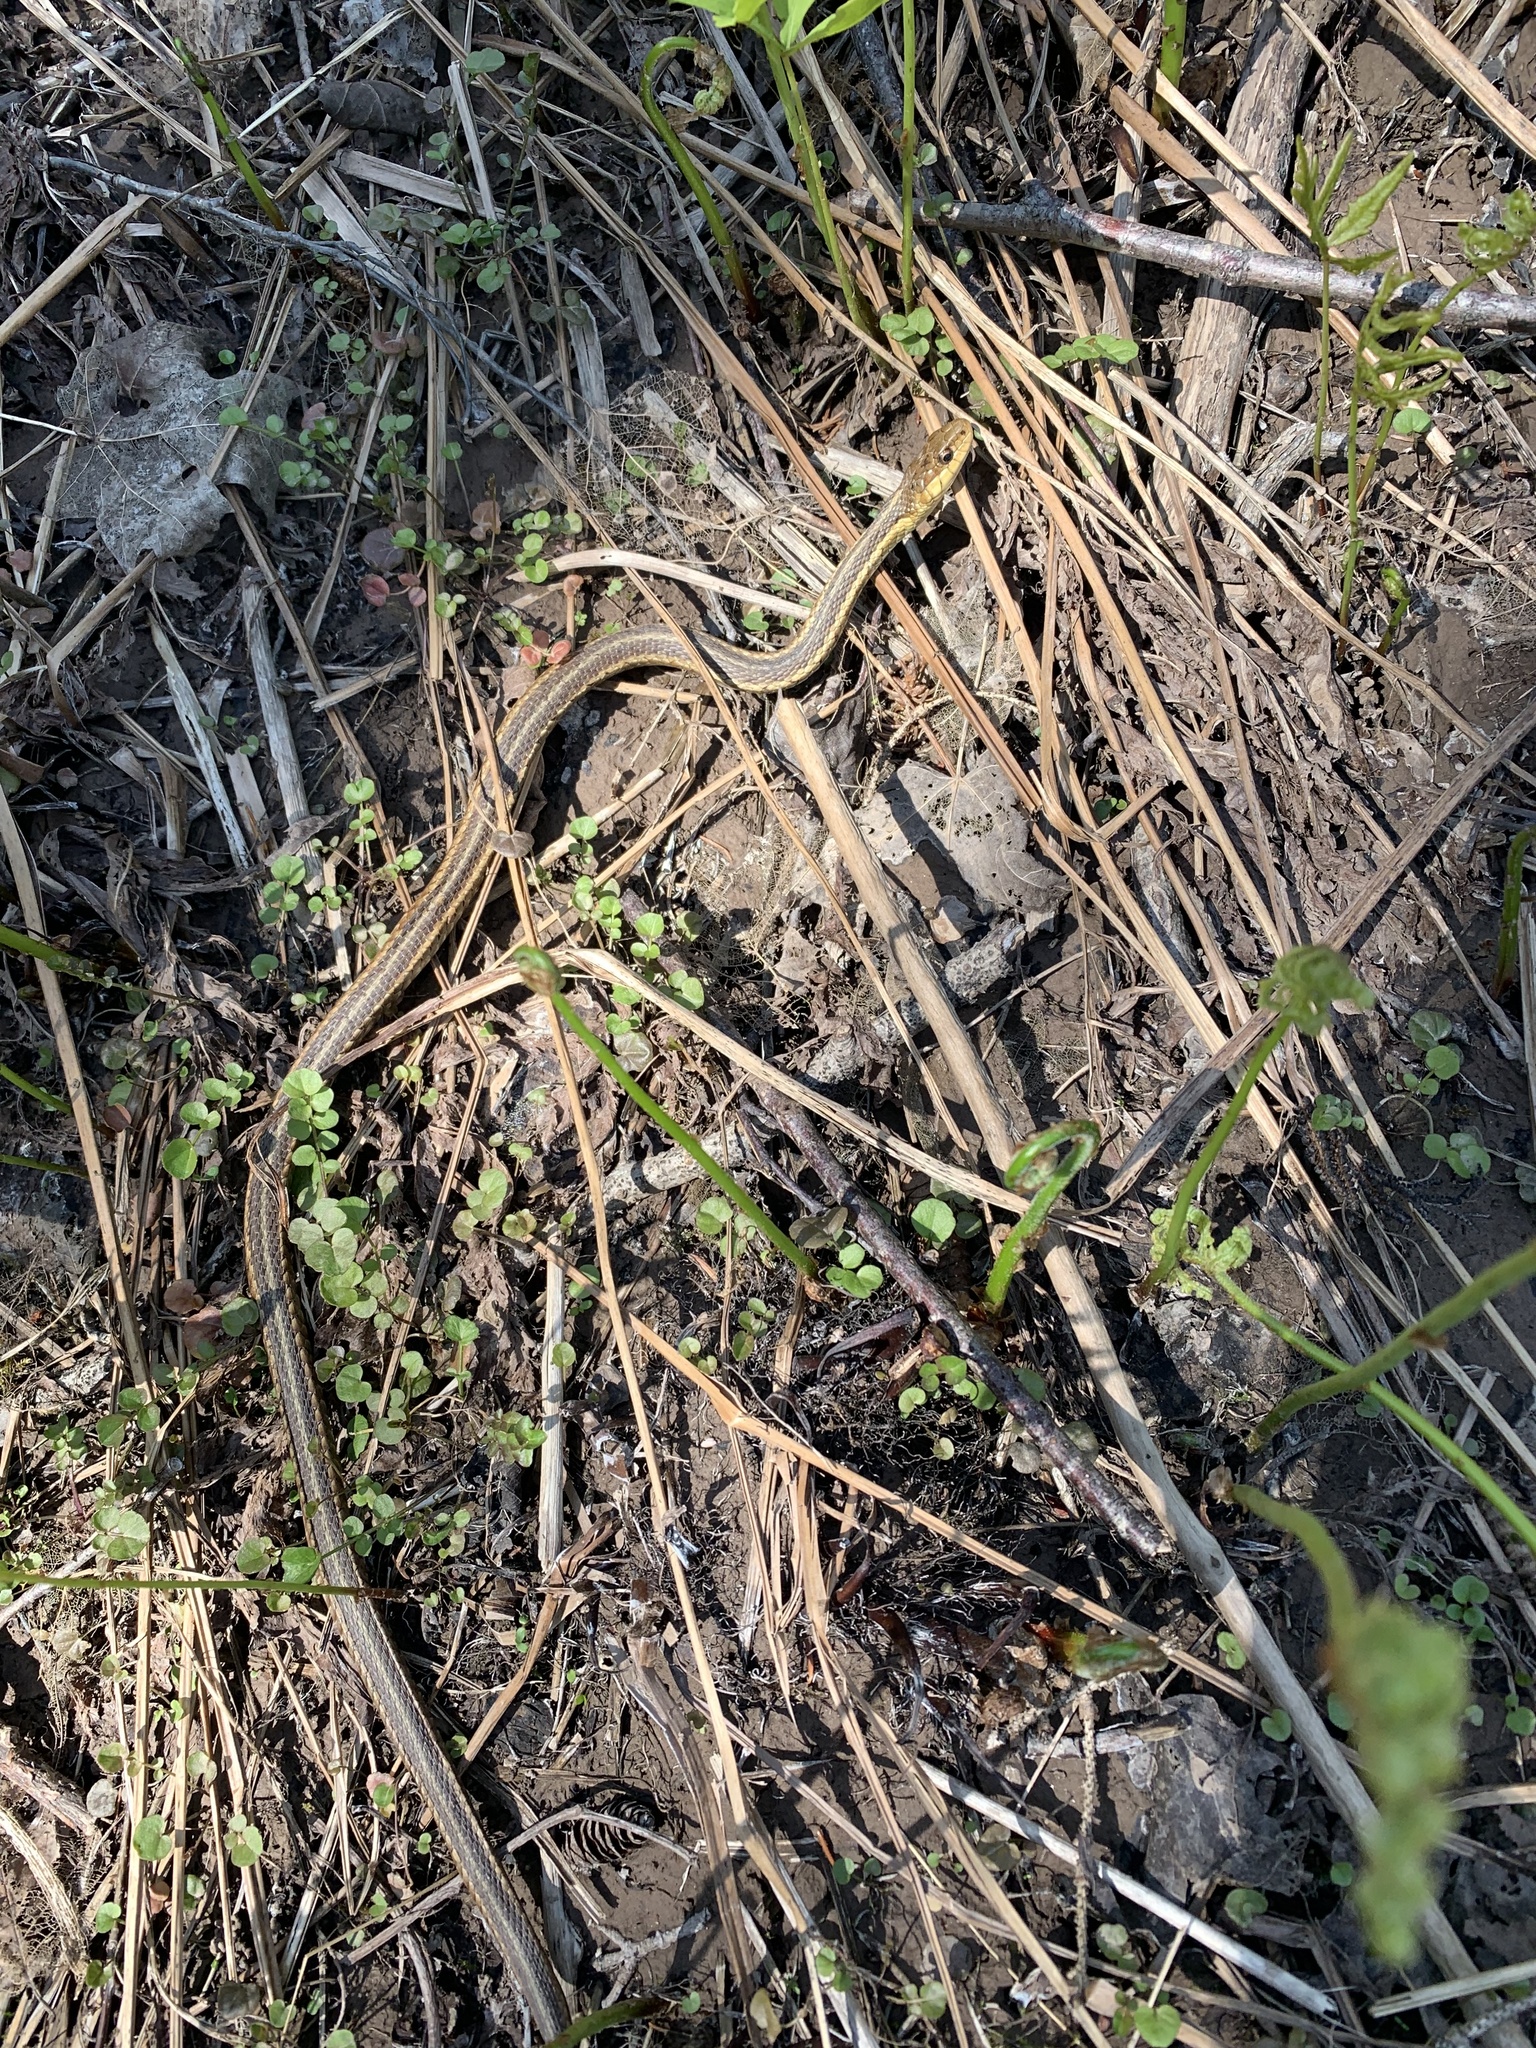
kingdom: Animalia
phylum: Chordata
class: Squamata
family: Colubridae
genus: Thamnophis
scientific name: Thamnophis sirtalis
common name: Common garter snake
